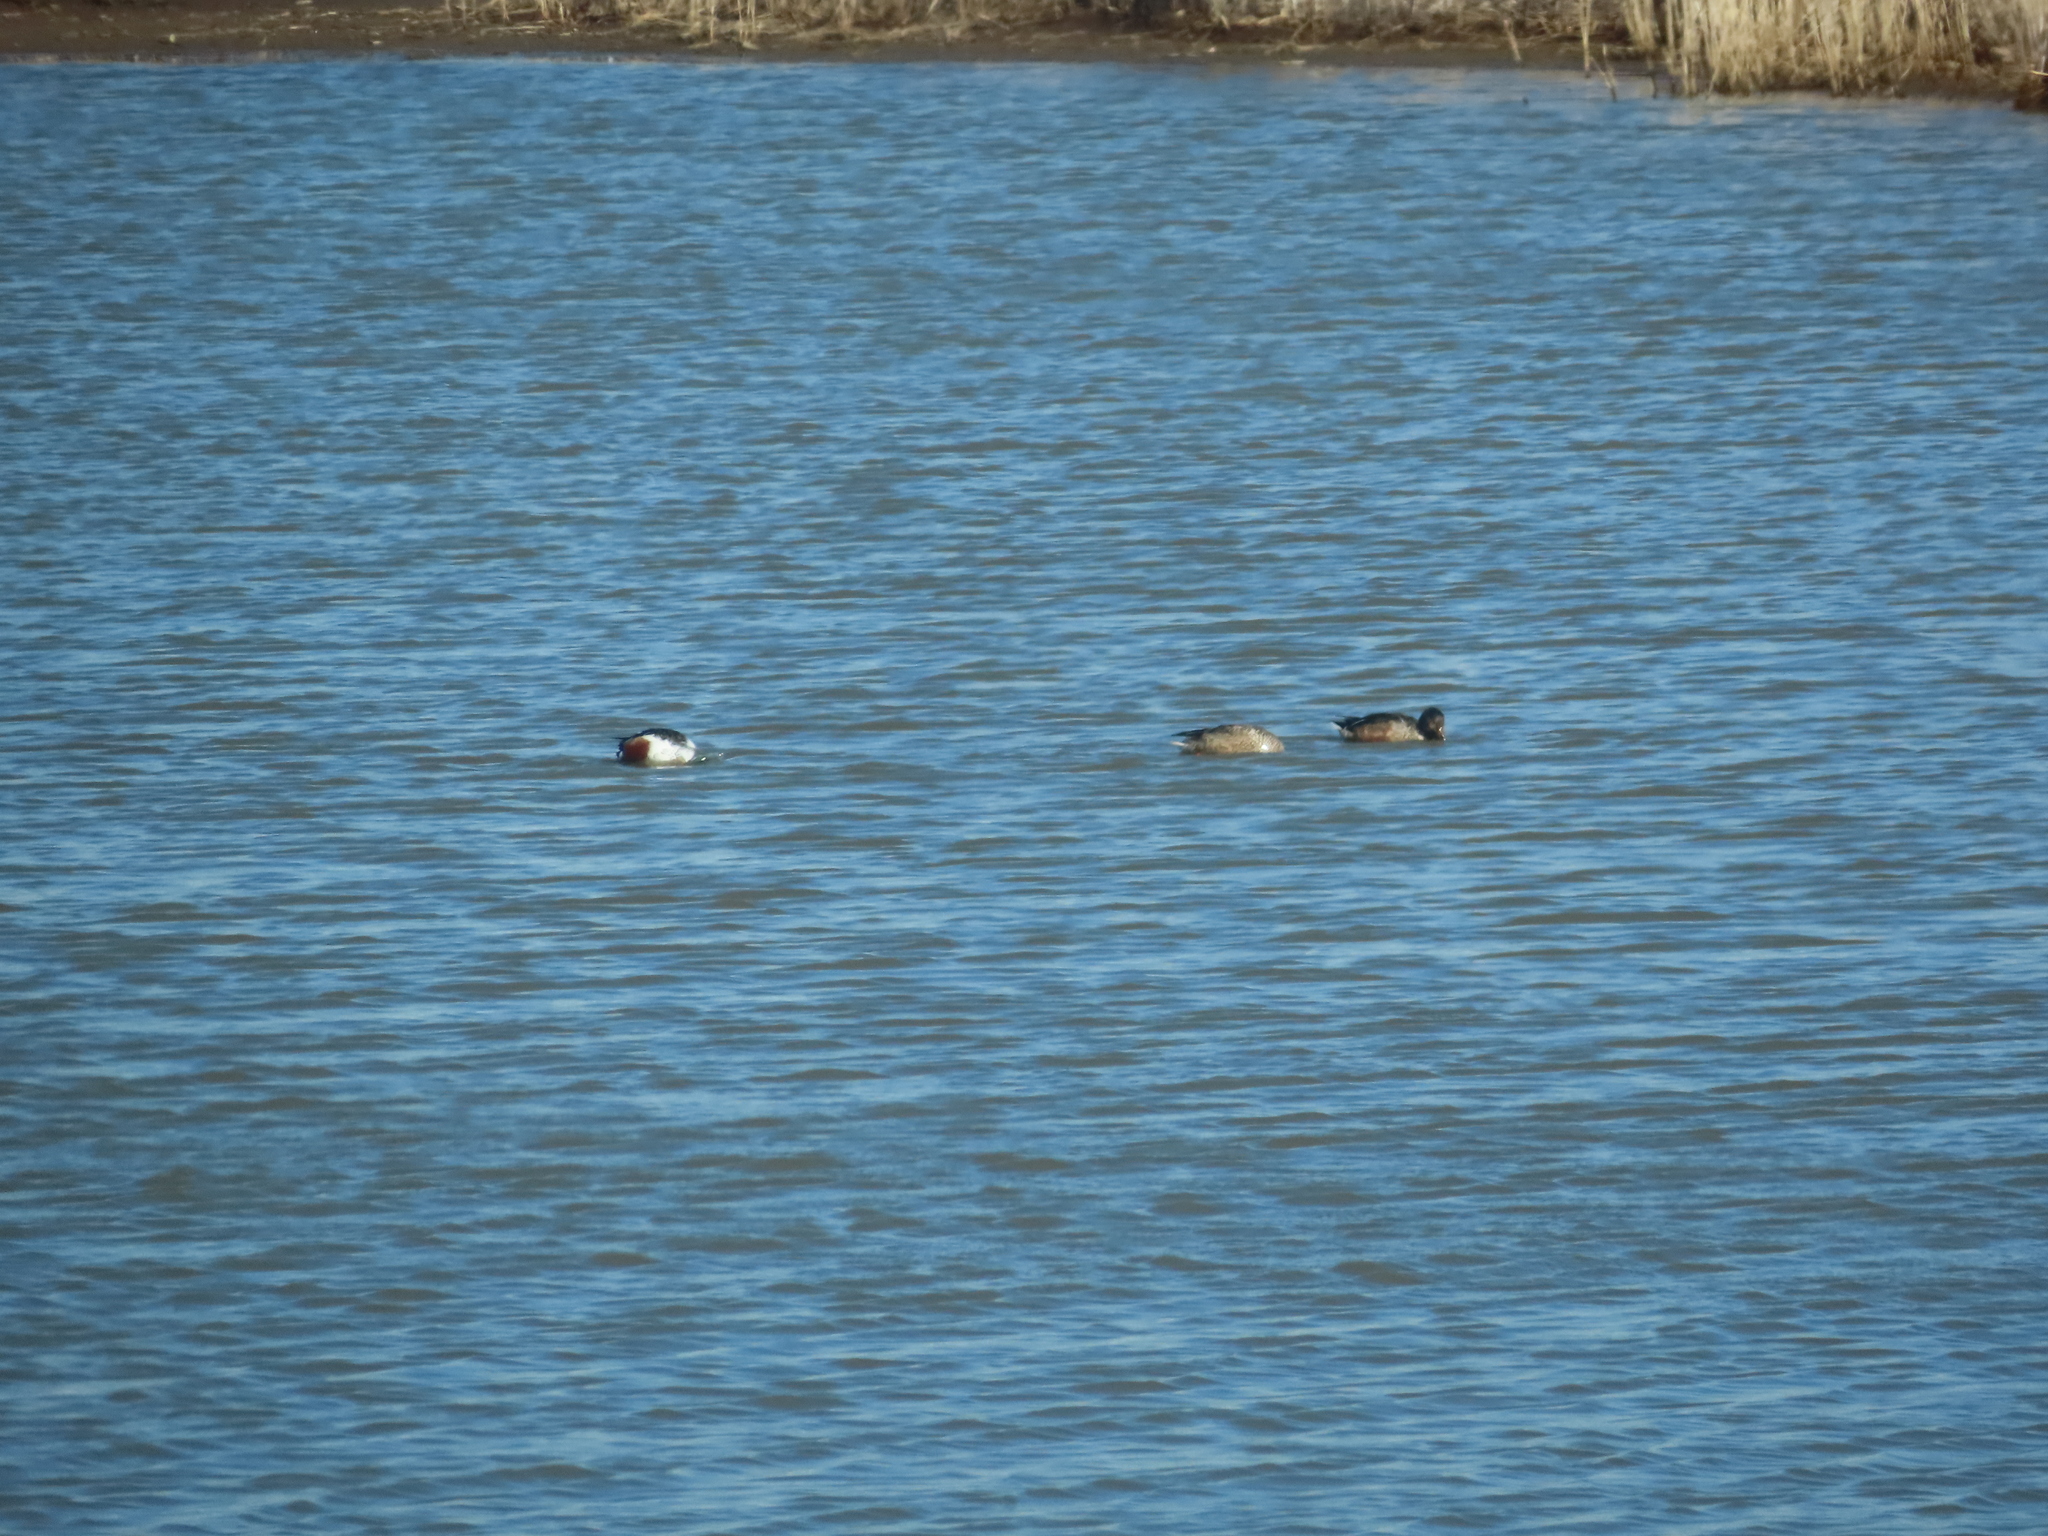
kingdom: Animalia
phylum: Chordata
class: Aves
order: Anseriformes
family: Anatidae
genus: Spatula
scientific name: Spatula clypeata
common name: Northern shoveler
